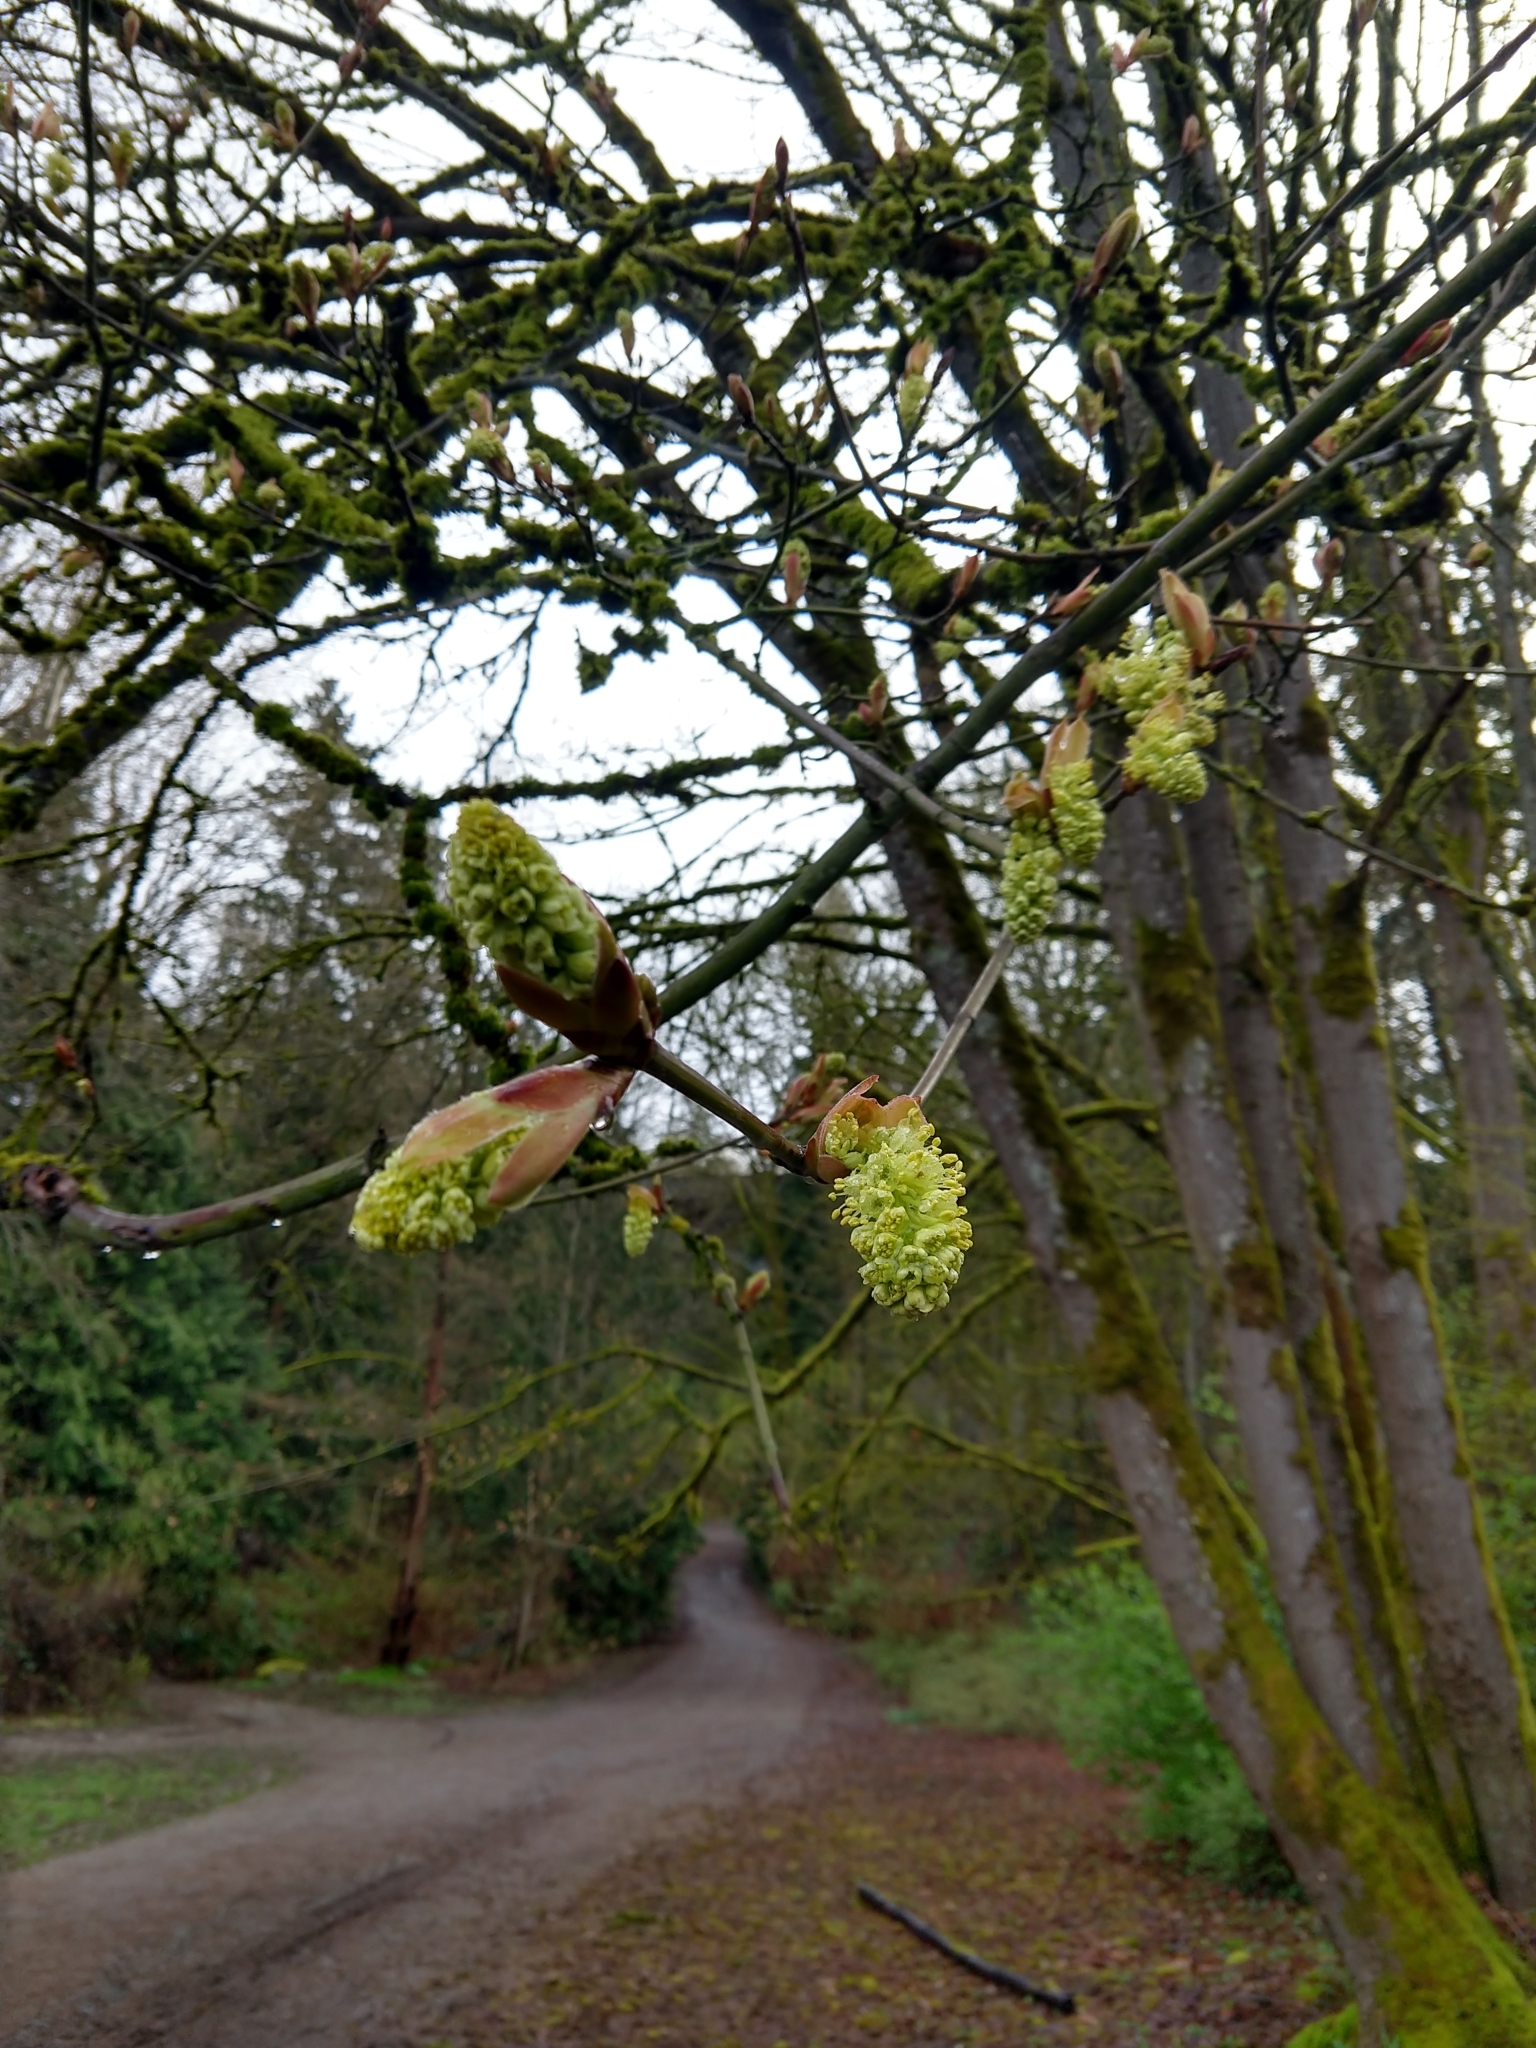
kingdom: Plantae
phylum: Tracheophyta
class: Magnoliopsida
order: Sapindales
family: Sapindaceae
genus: Acer
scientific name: Acer macrophyllum
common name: Oregon maple
